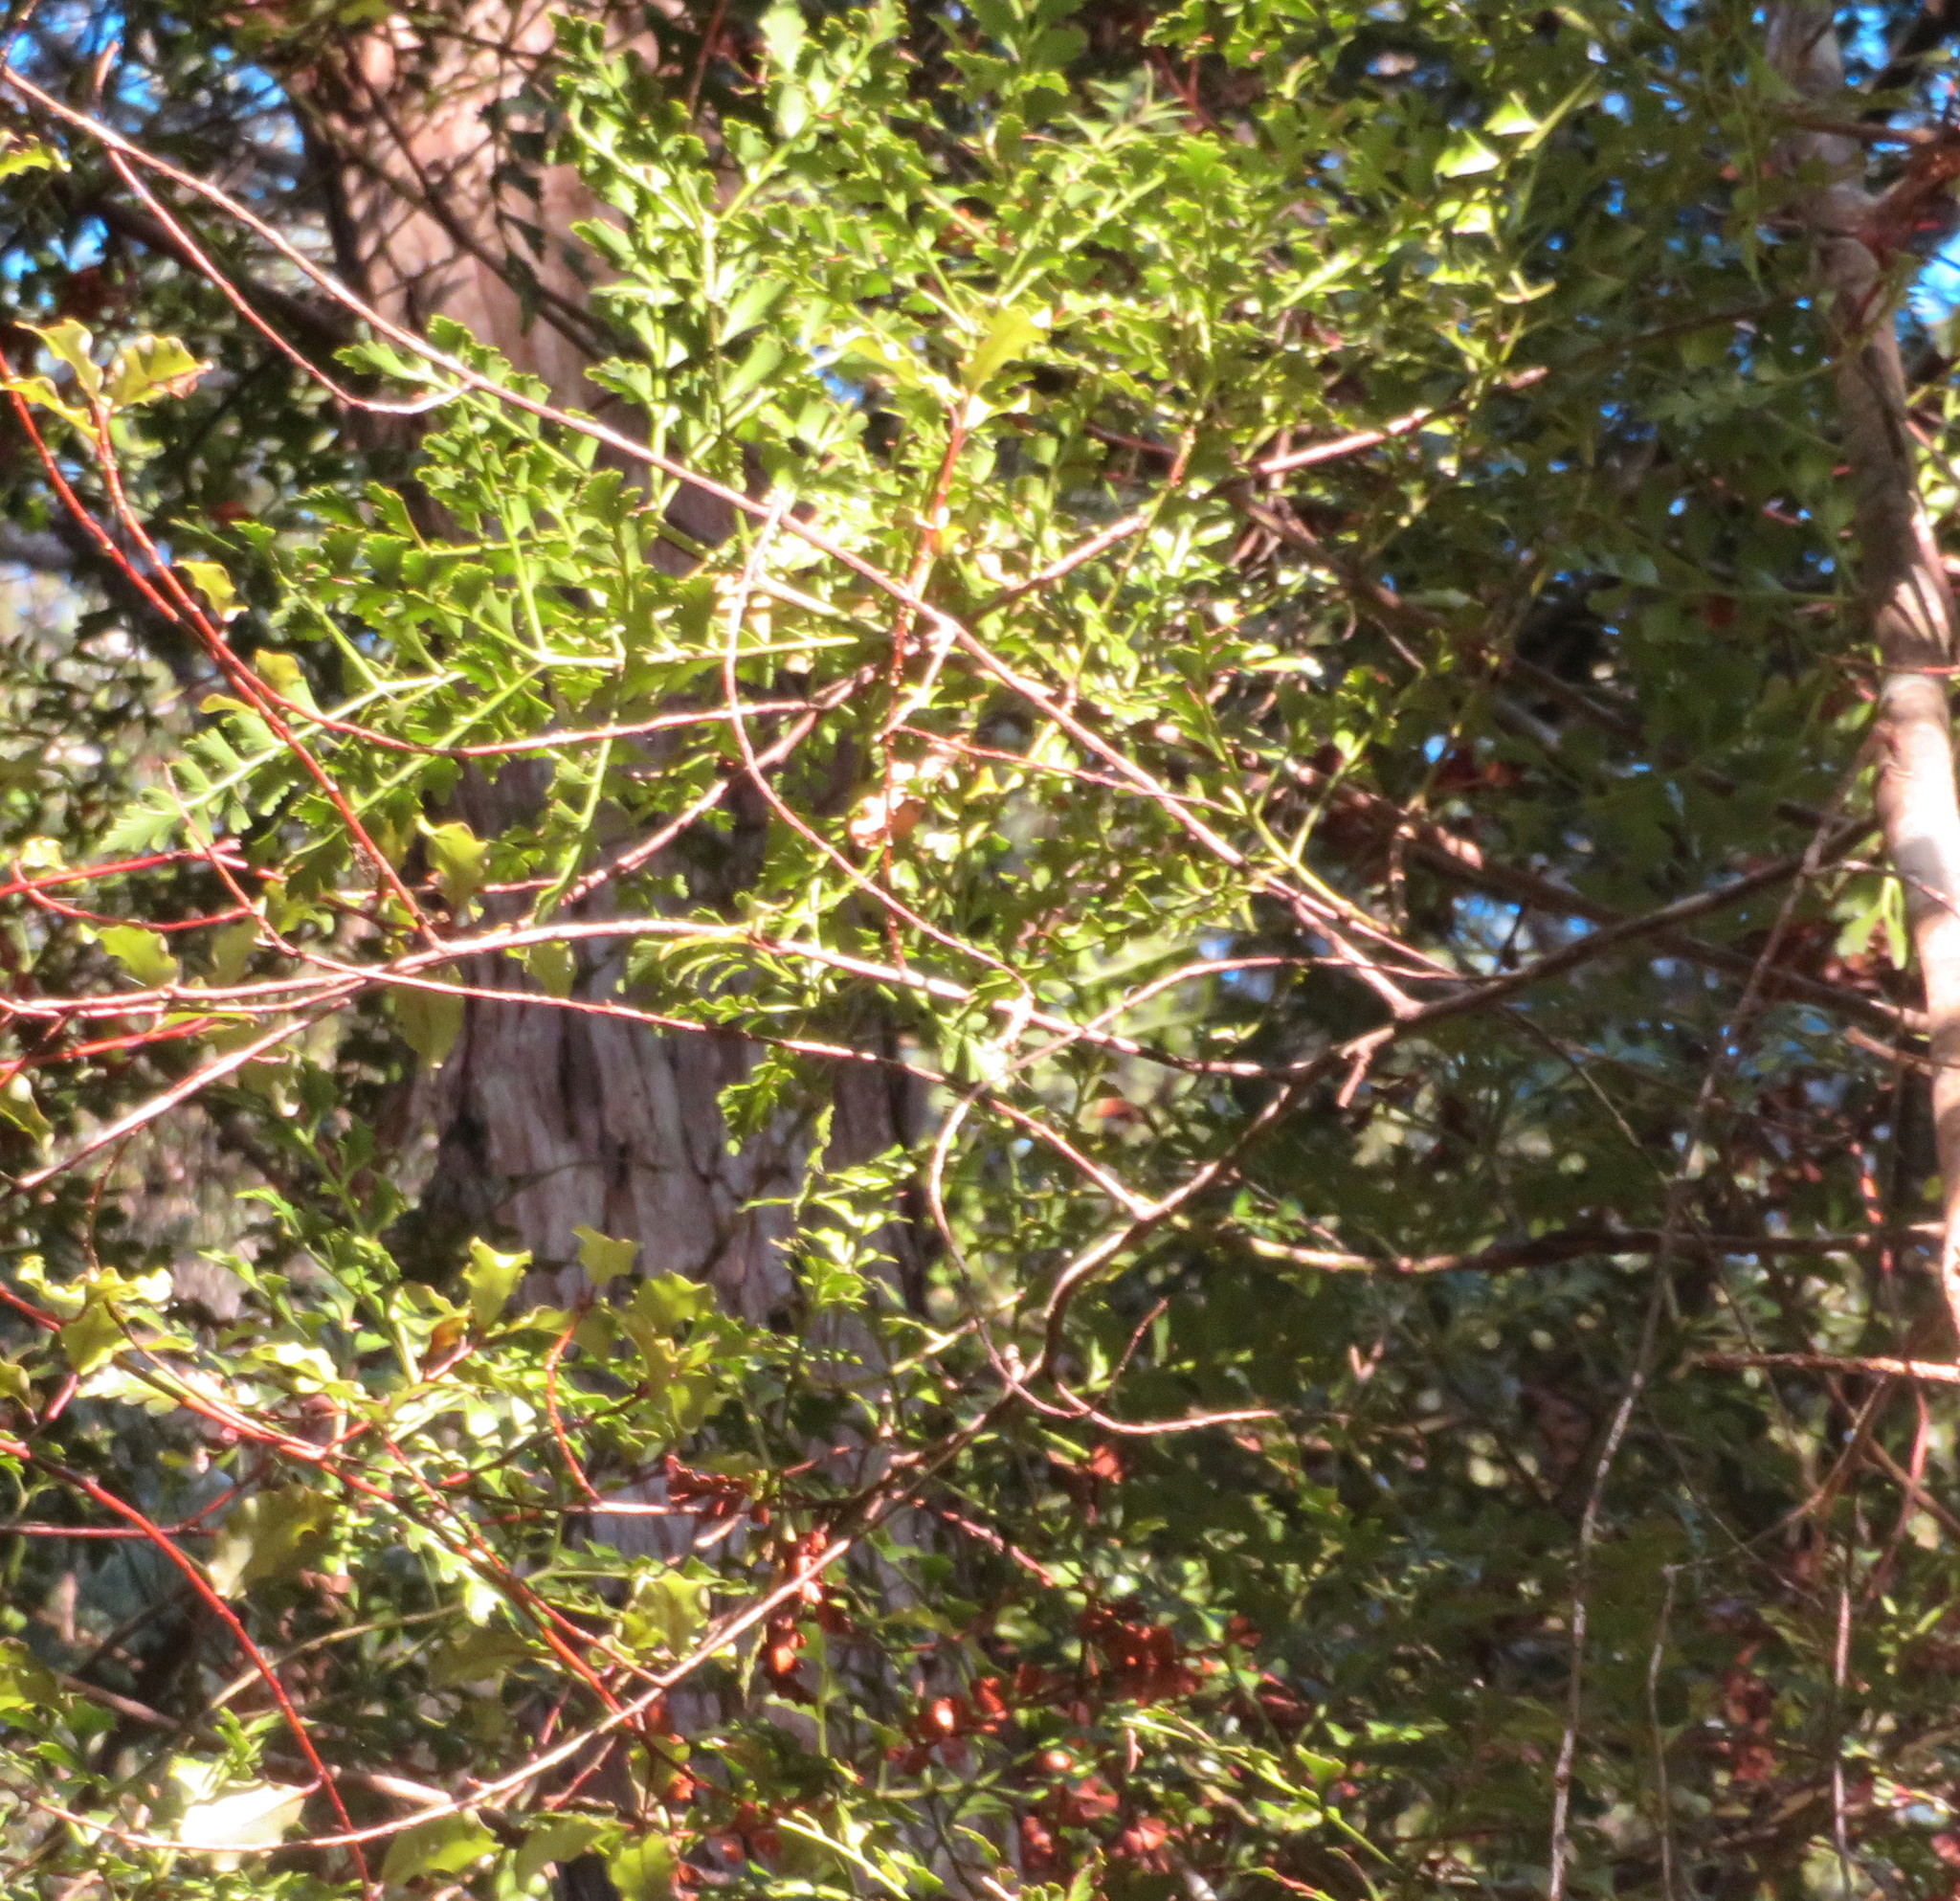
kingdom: Plantae
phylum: Tracheophyta
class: Pinopsida
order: Pinales
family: Phyllocladaceae
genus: Phyllocladus
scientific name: Phyllocladus trichomanoides
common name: Celery pine
